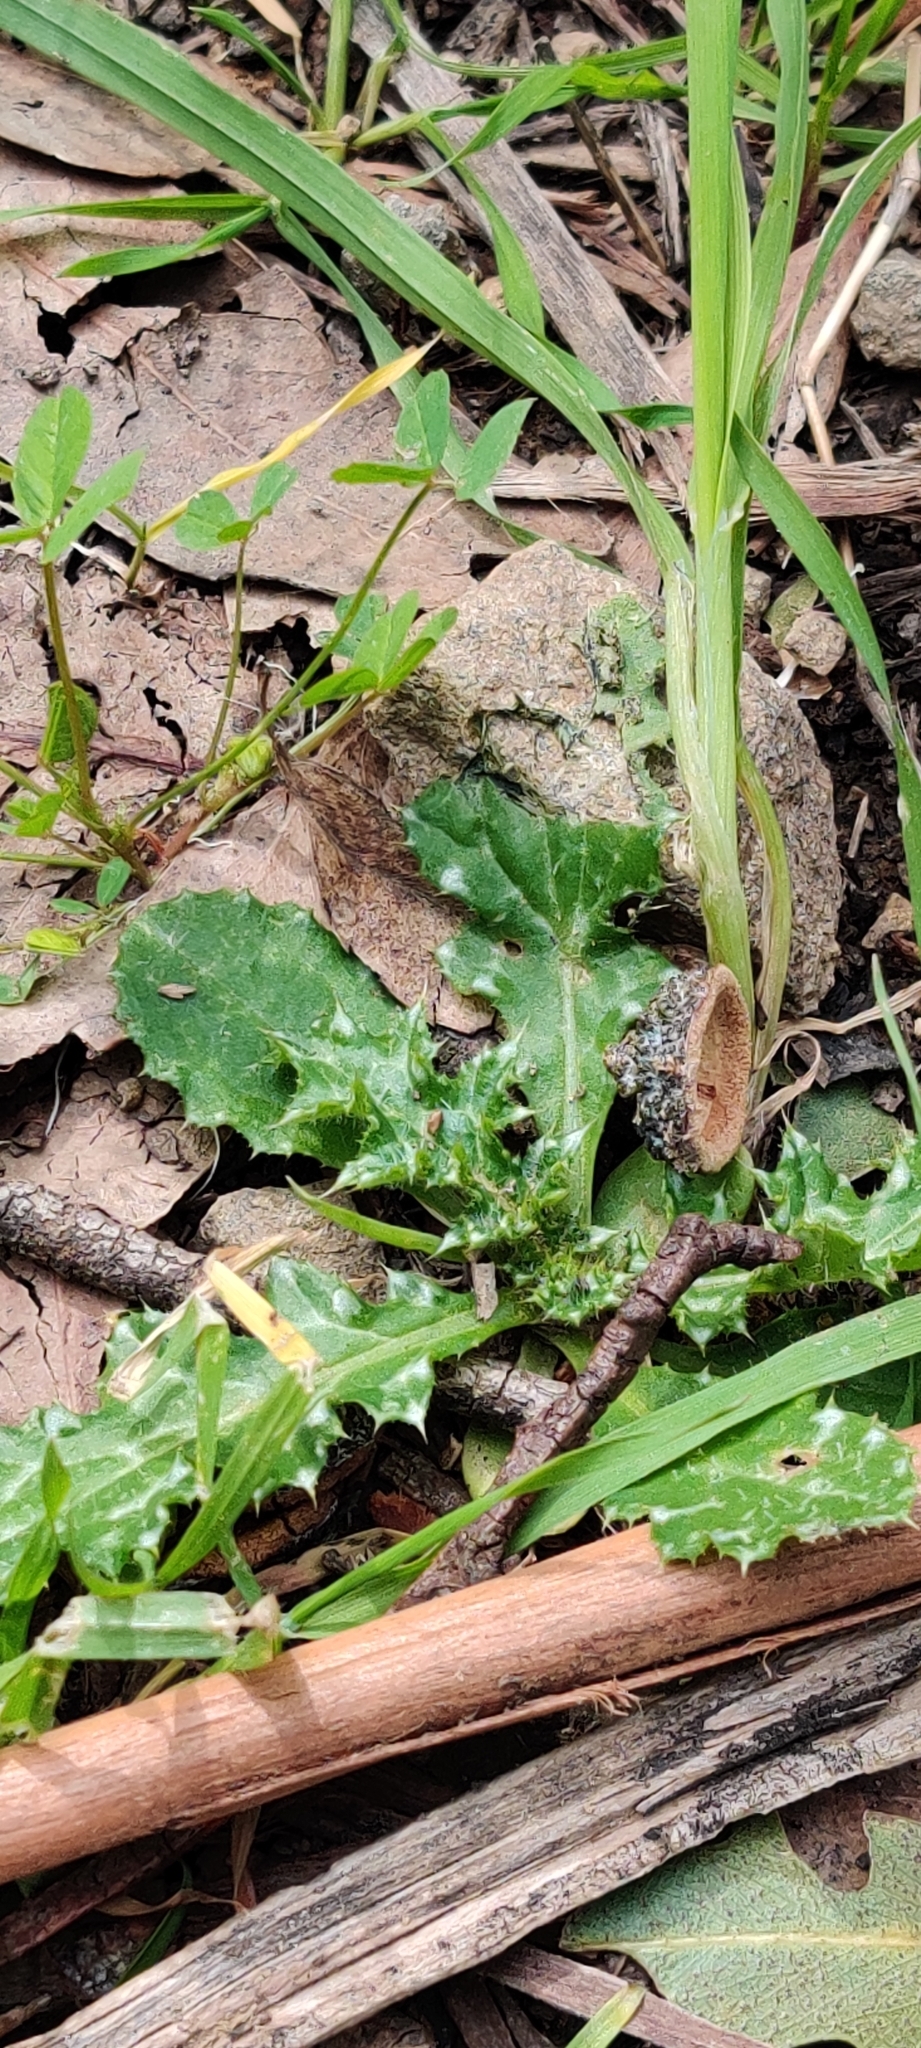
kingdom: Plantae
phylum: Tracheophyta
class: Magnoliopsida
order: Asterales
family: Asteraceae
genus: Carduus
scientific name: Carduus pycnocephalus
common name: Plymouth thistle
